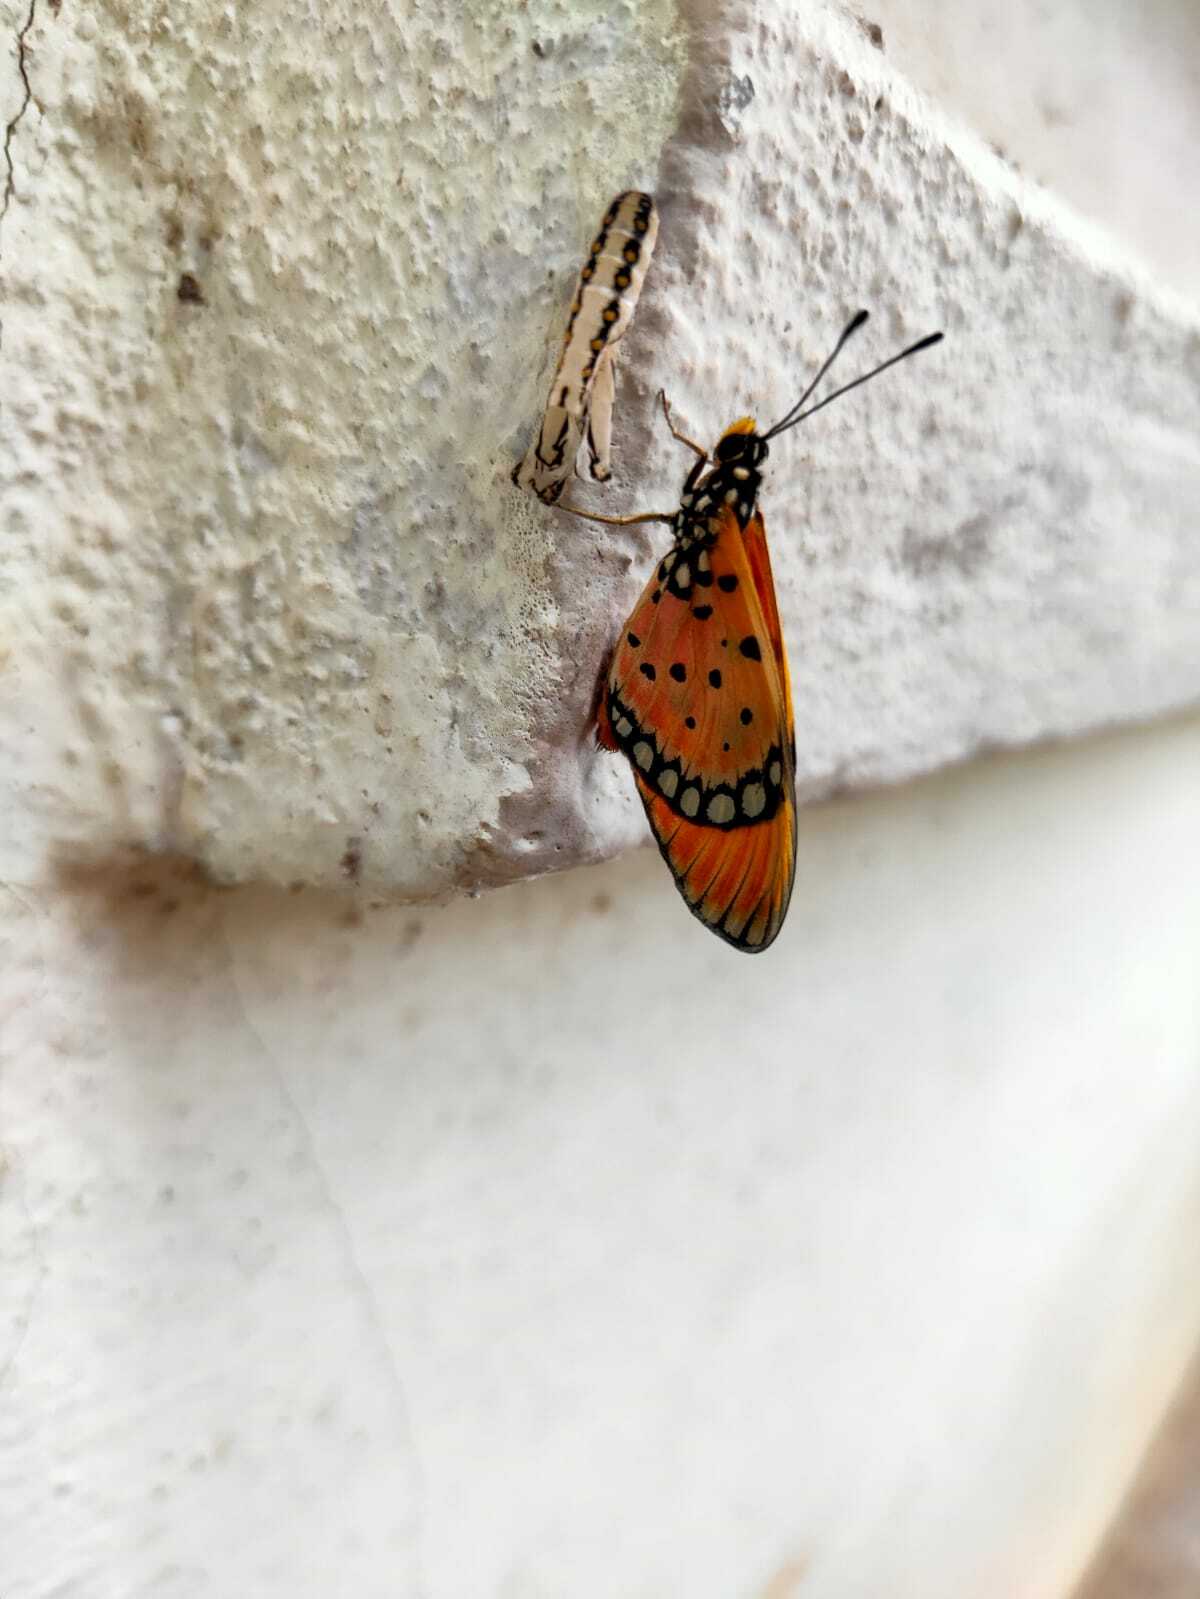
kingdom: Animalia
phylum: Arthropoda
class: Insecta
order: Lepidoptera
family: Nymphalidae
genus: Acraea
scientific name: Acraea terpsicore
